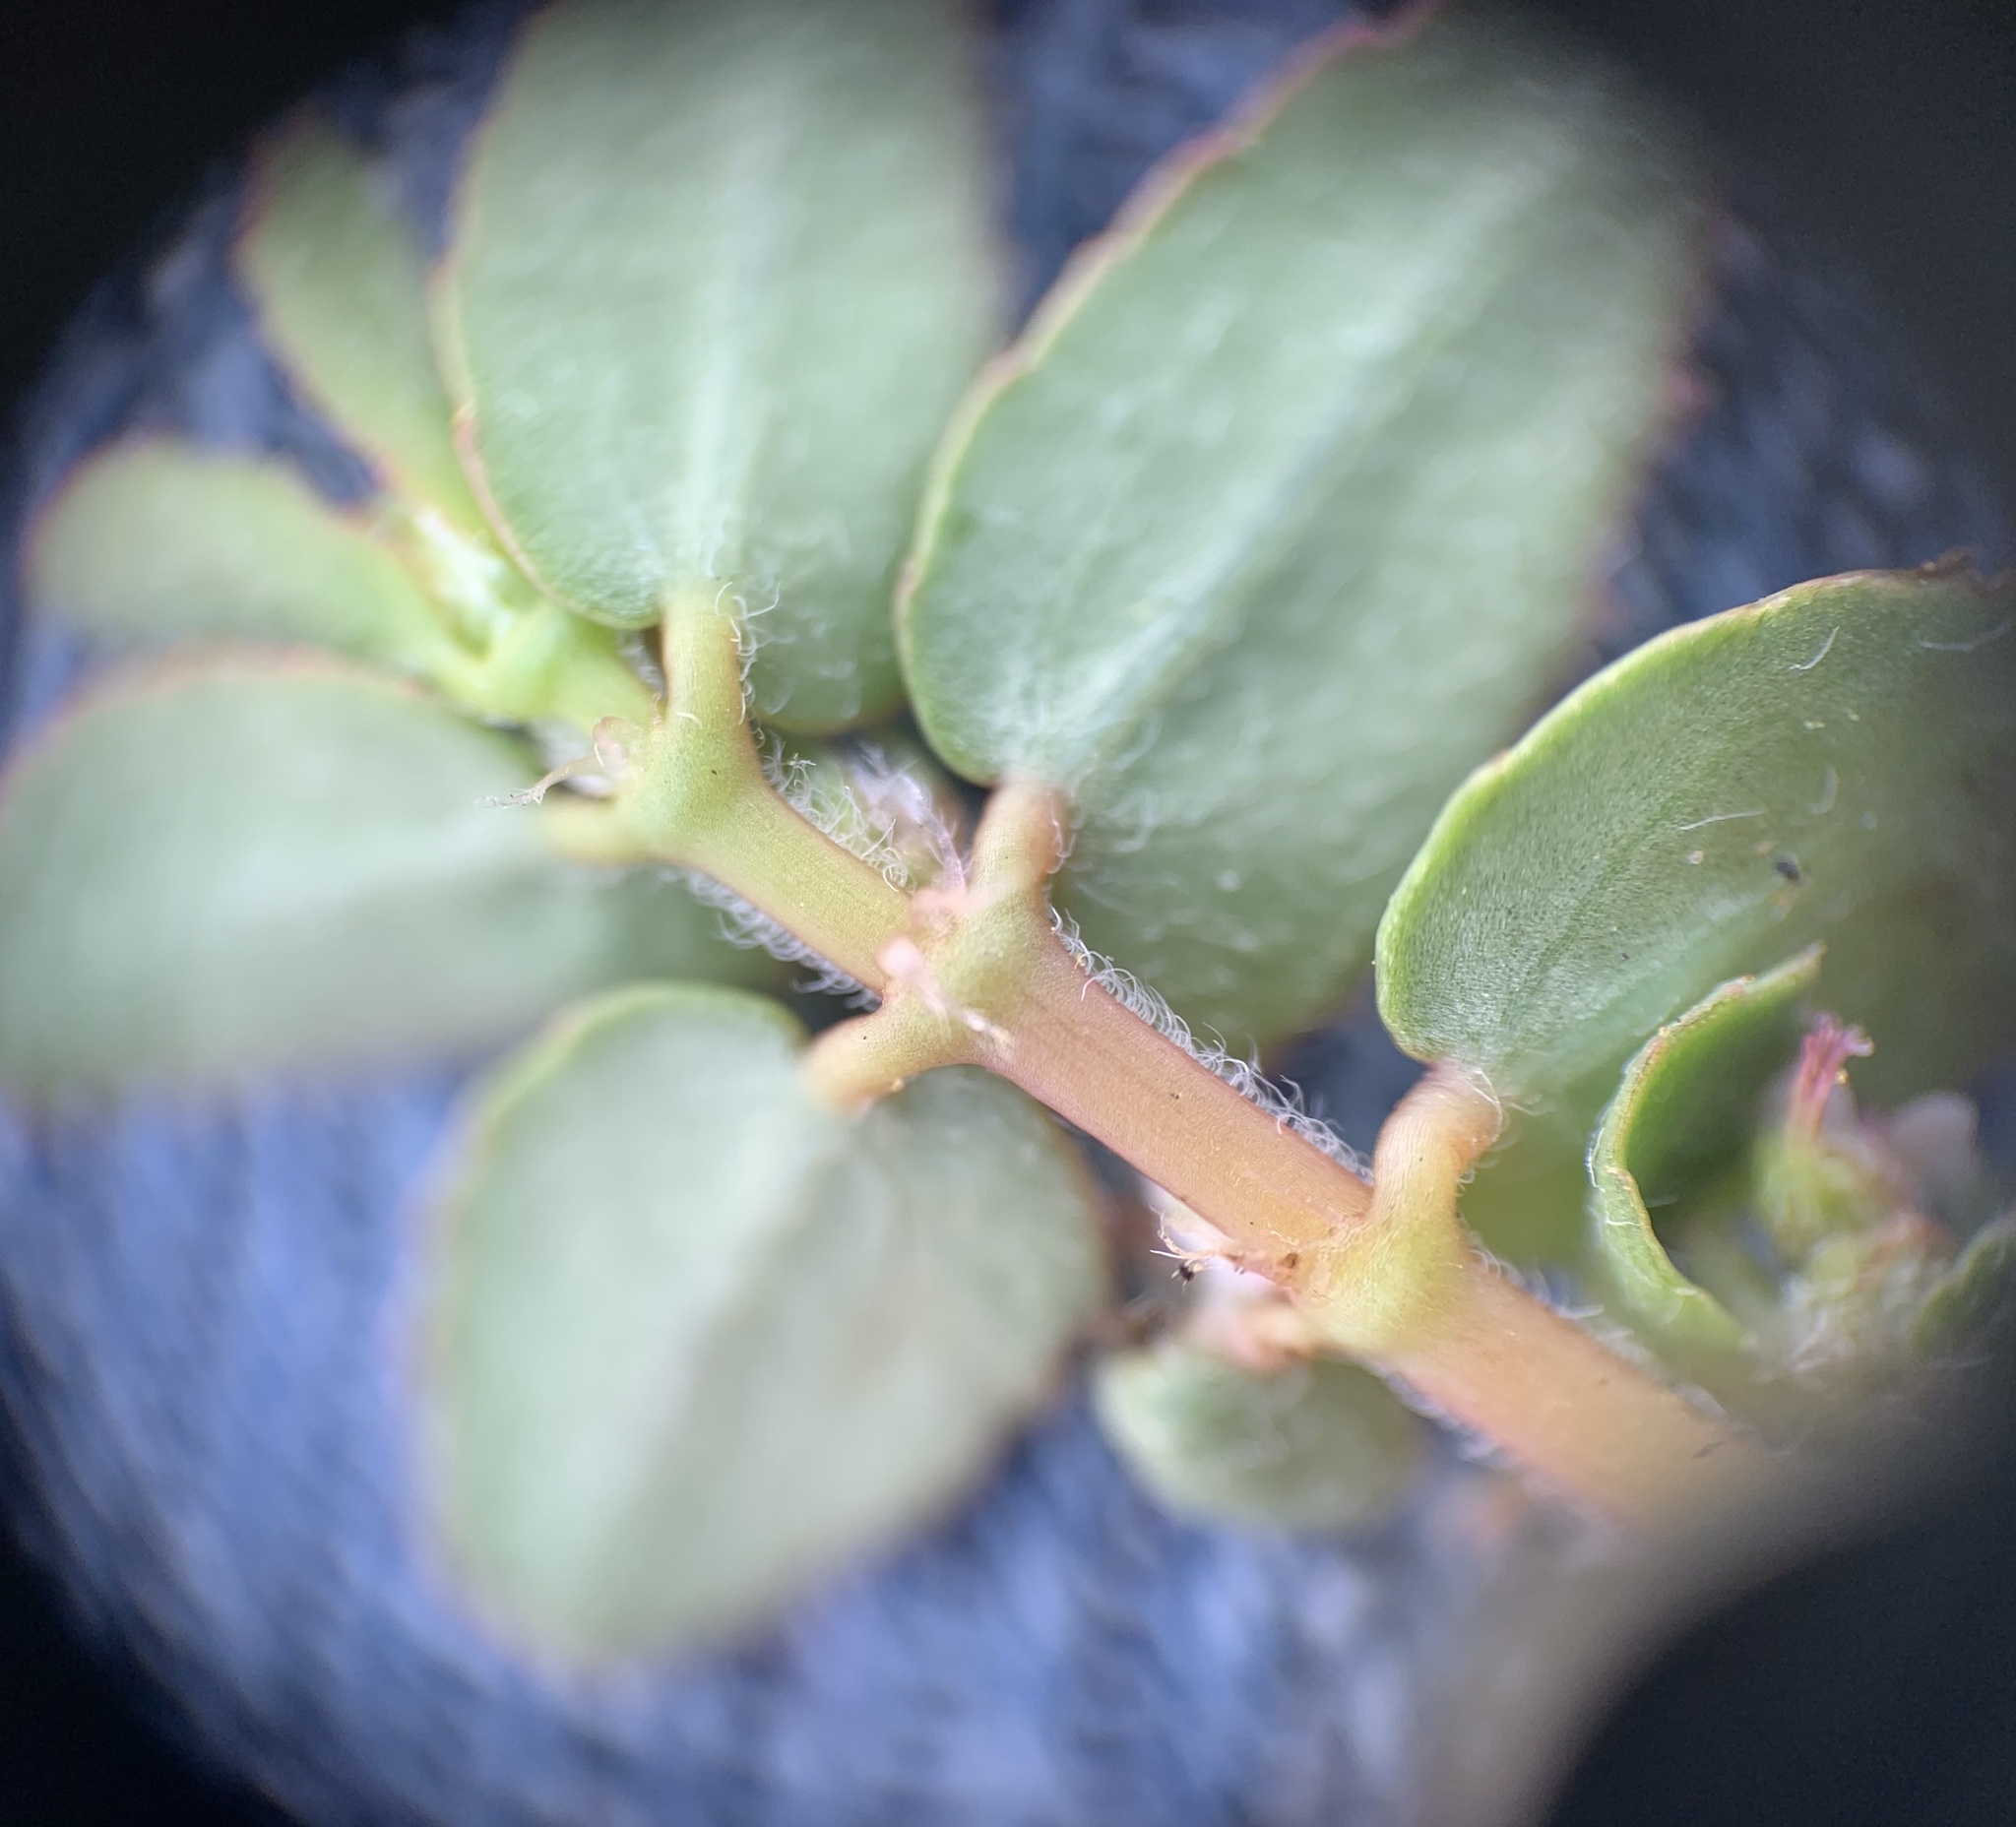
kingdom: Plantae
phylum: Tracheophyta
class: Magnoliopsida
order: Malpighiales
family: Euphorbiaceae
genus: Euphorbia
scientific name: Euphorbia thymifolia
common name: Gulf sandmat
